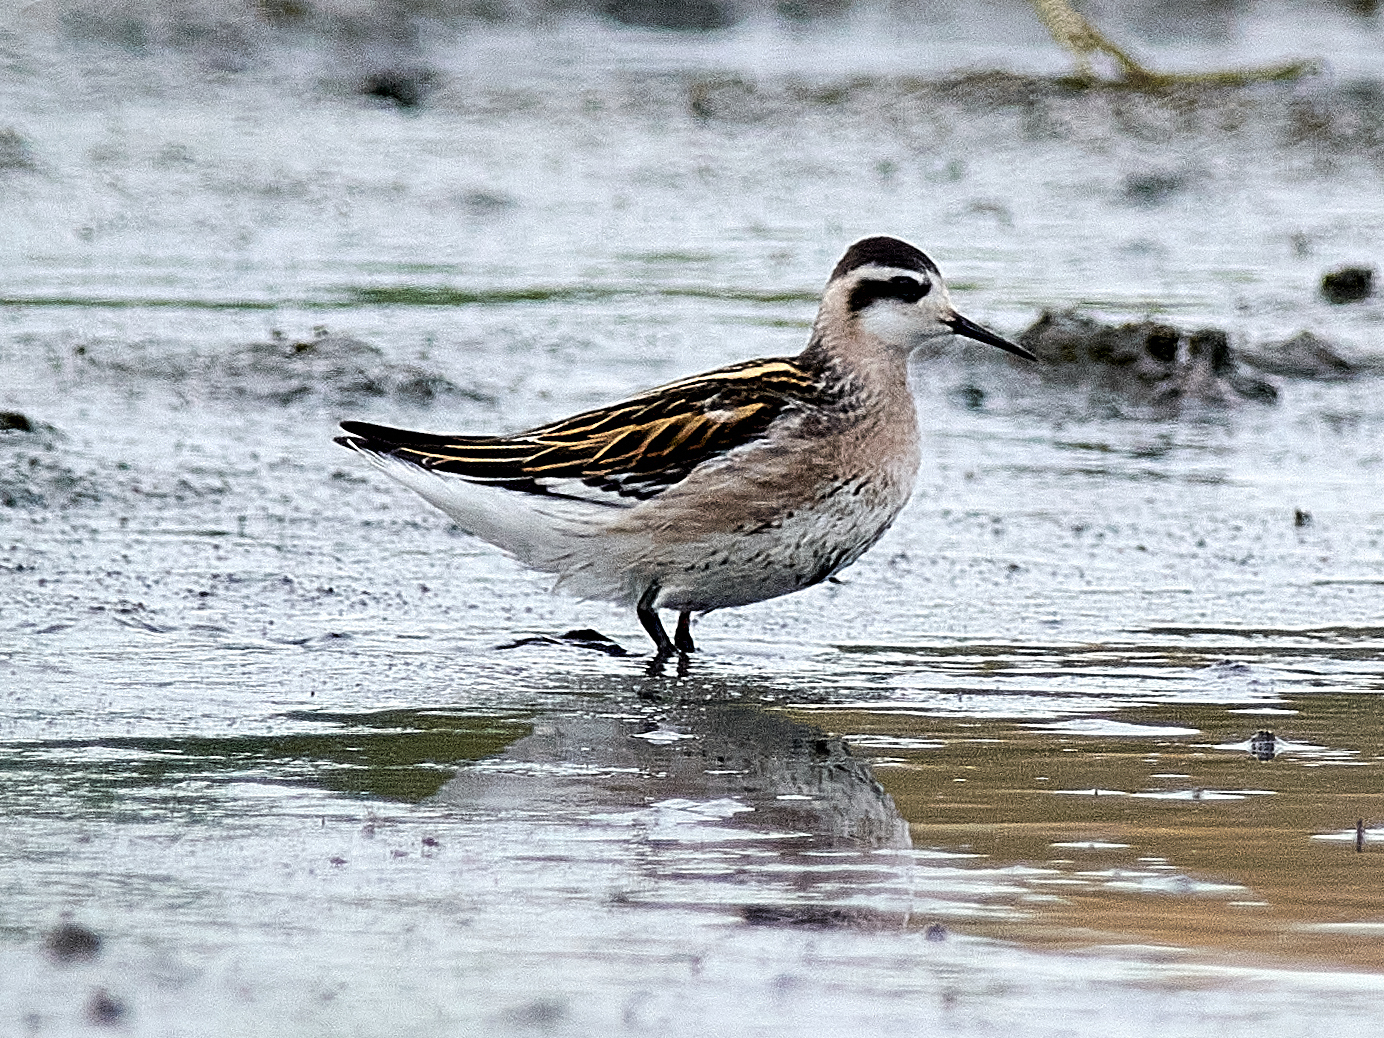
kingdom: Animalia
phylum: Chordata
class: Aves
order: Charadriiformes
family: Scolopacidae
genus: Phalaropus
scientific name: Phalaropus lobatus
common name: Red-necked phalarope
